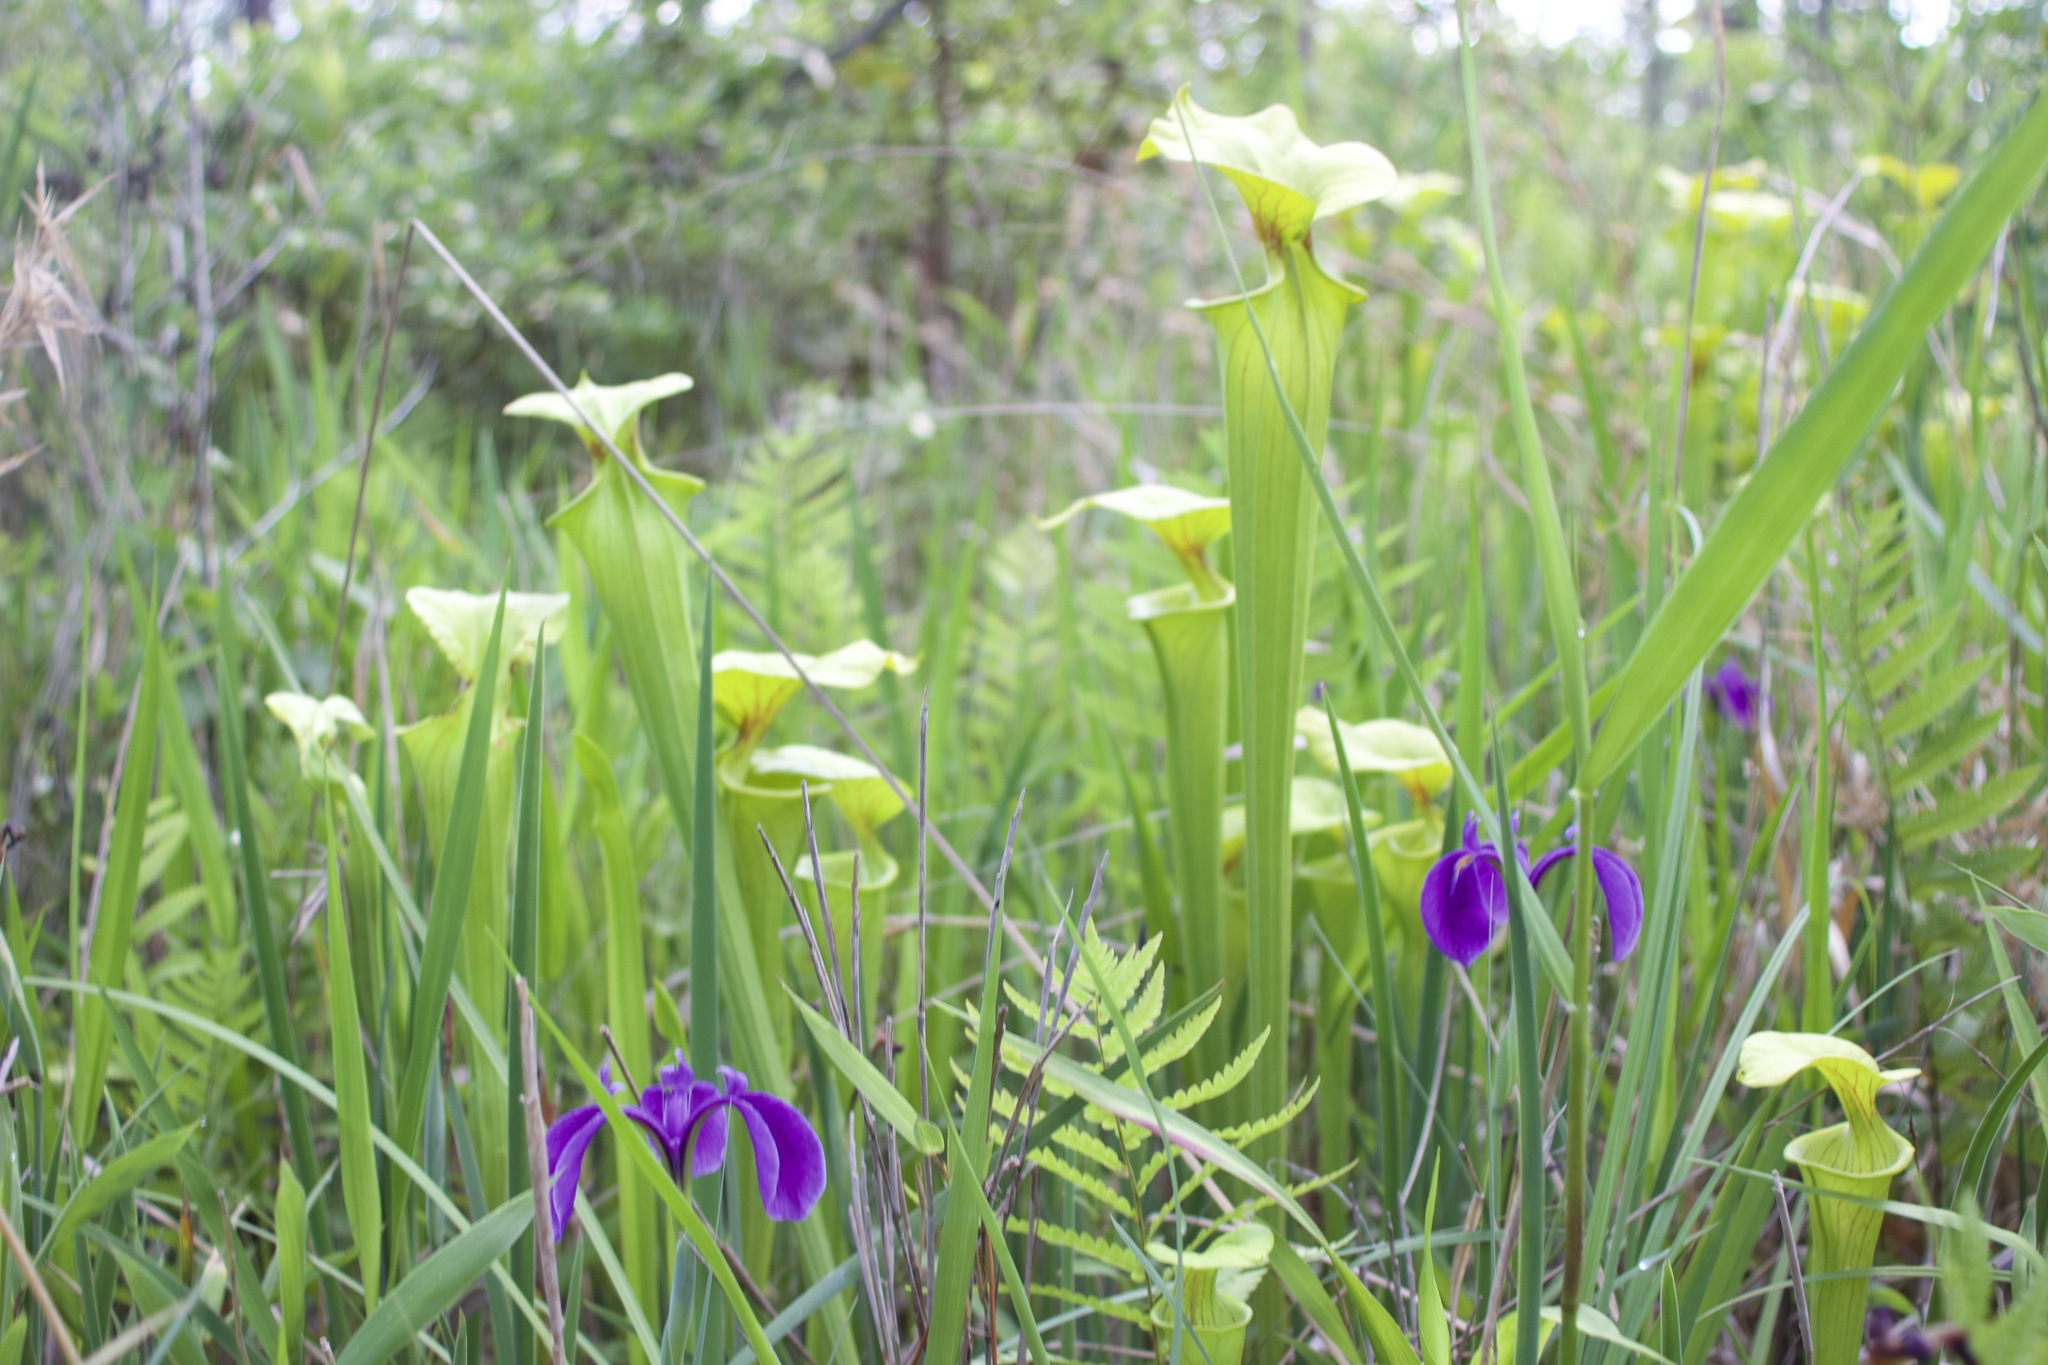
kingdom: Plantae
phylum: Tracheophyta
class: Liliopsida
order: Asparagales
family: Iridaceae
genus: Iris
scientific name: Iris tridentata
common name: Savannah iris
